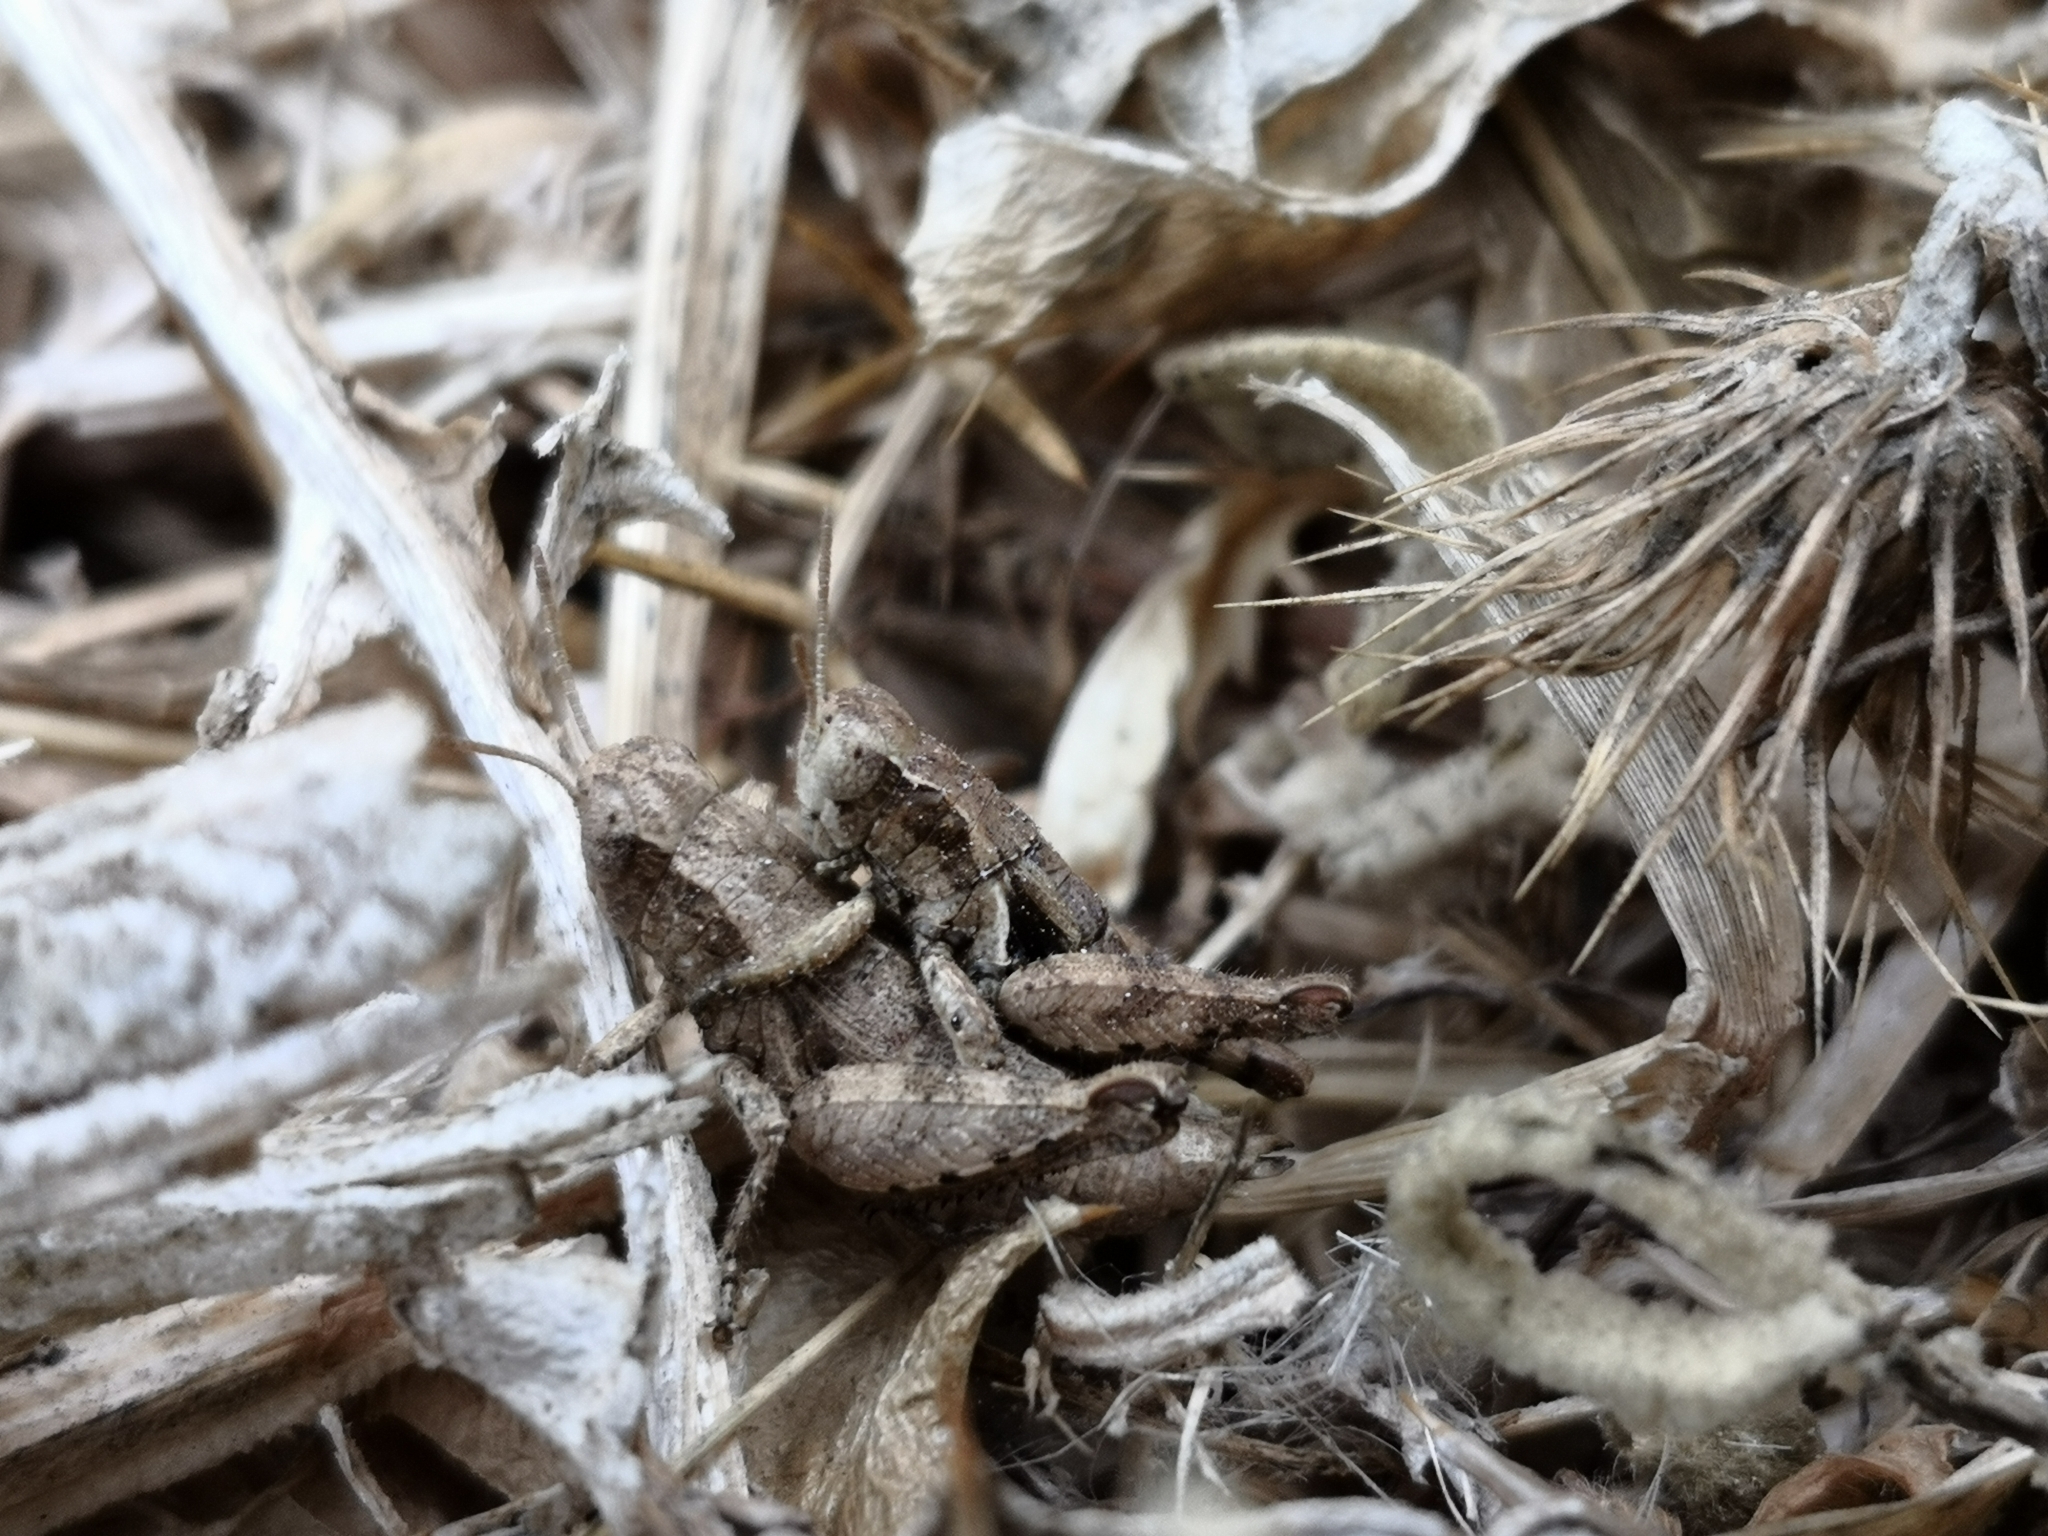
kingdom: Animalia
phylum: Arthropoda
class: Insecta
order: Orthoptera
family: Acrididae
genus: Pezotettix
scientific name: Pezotettix giornae
